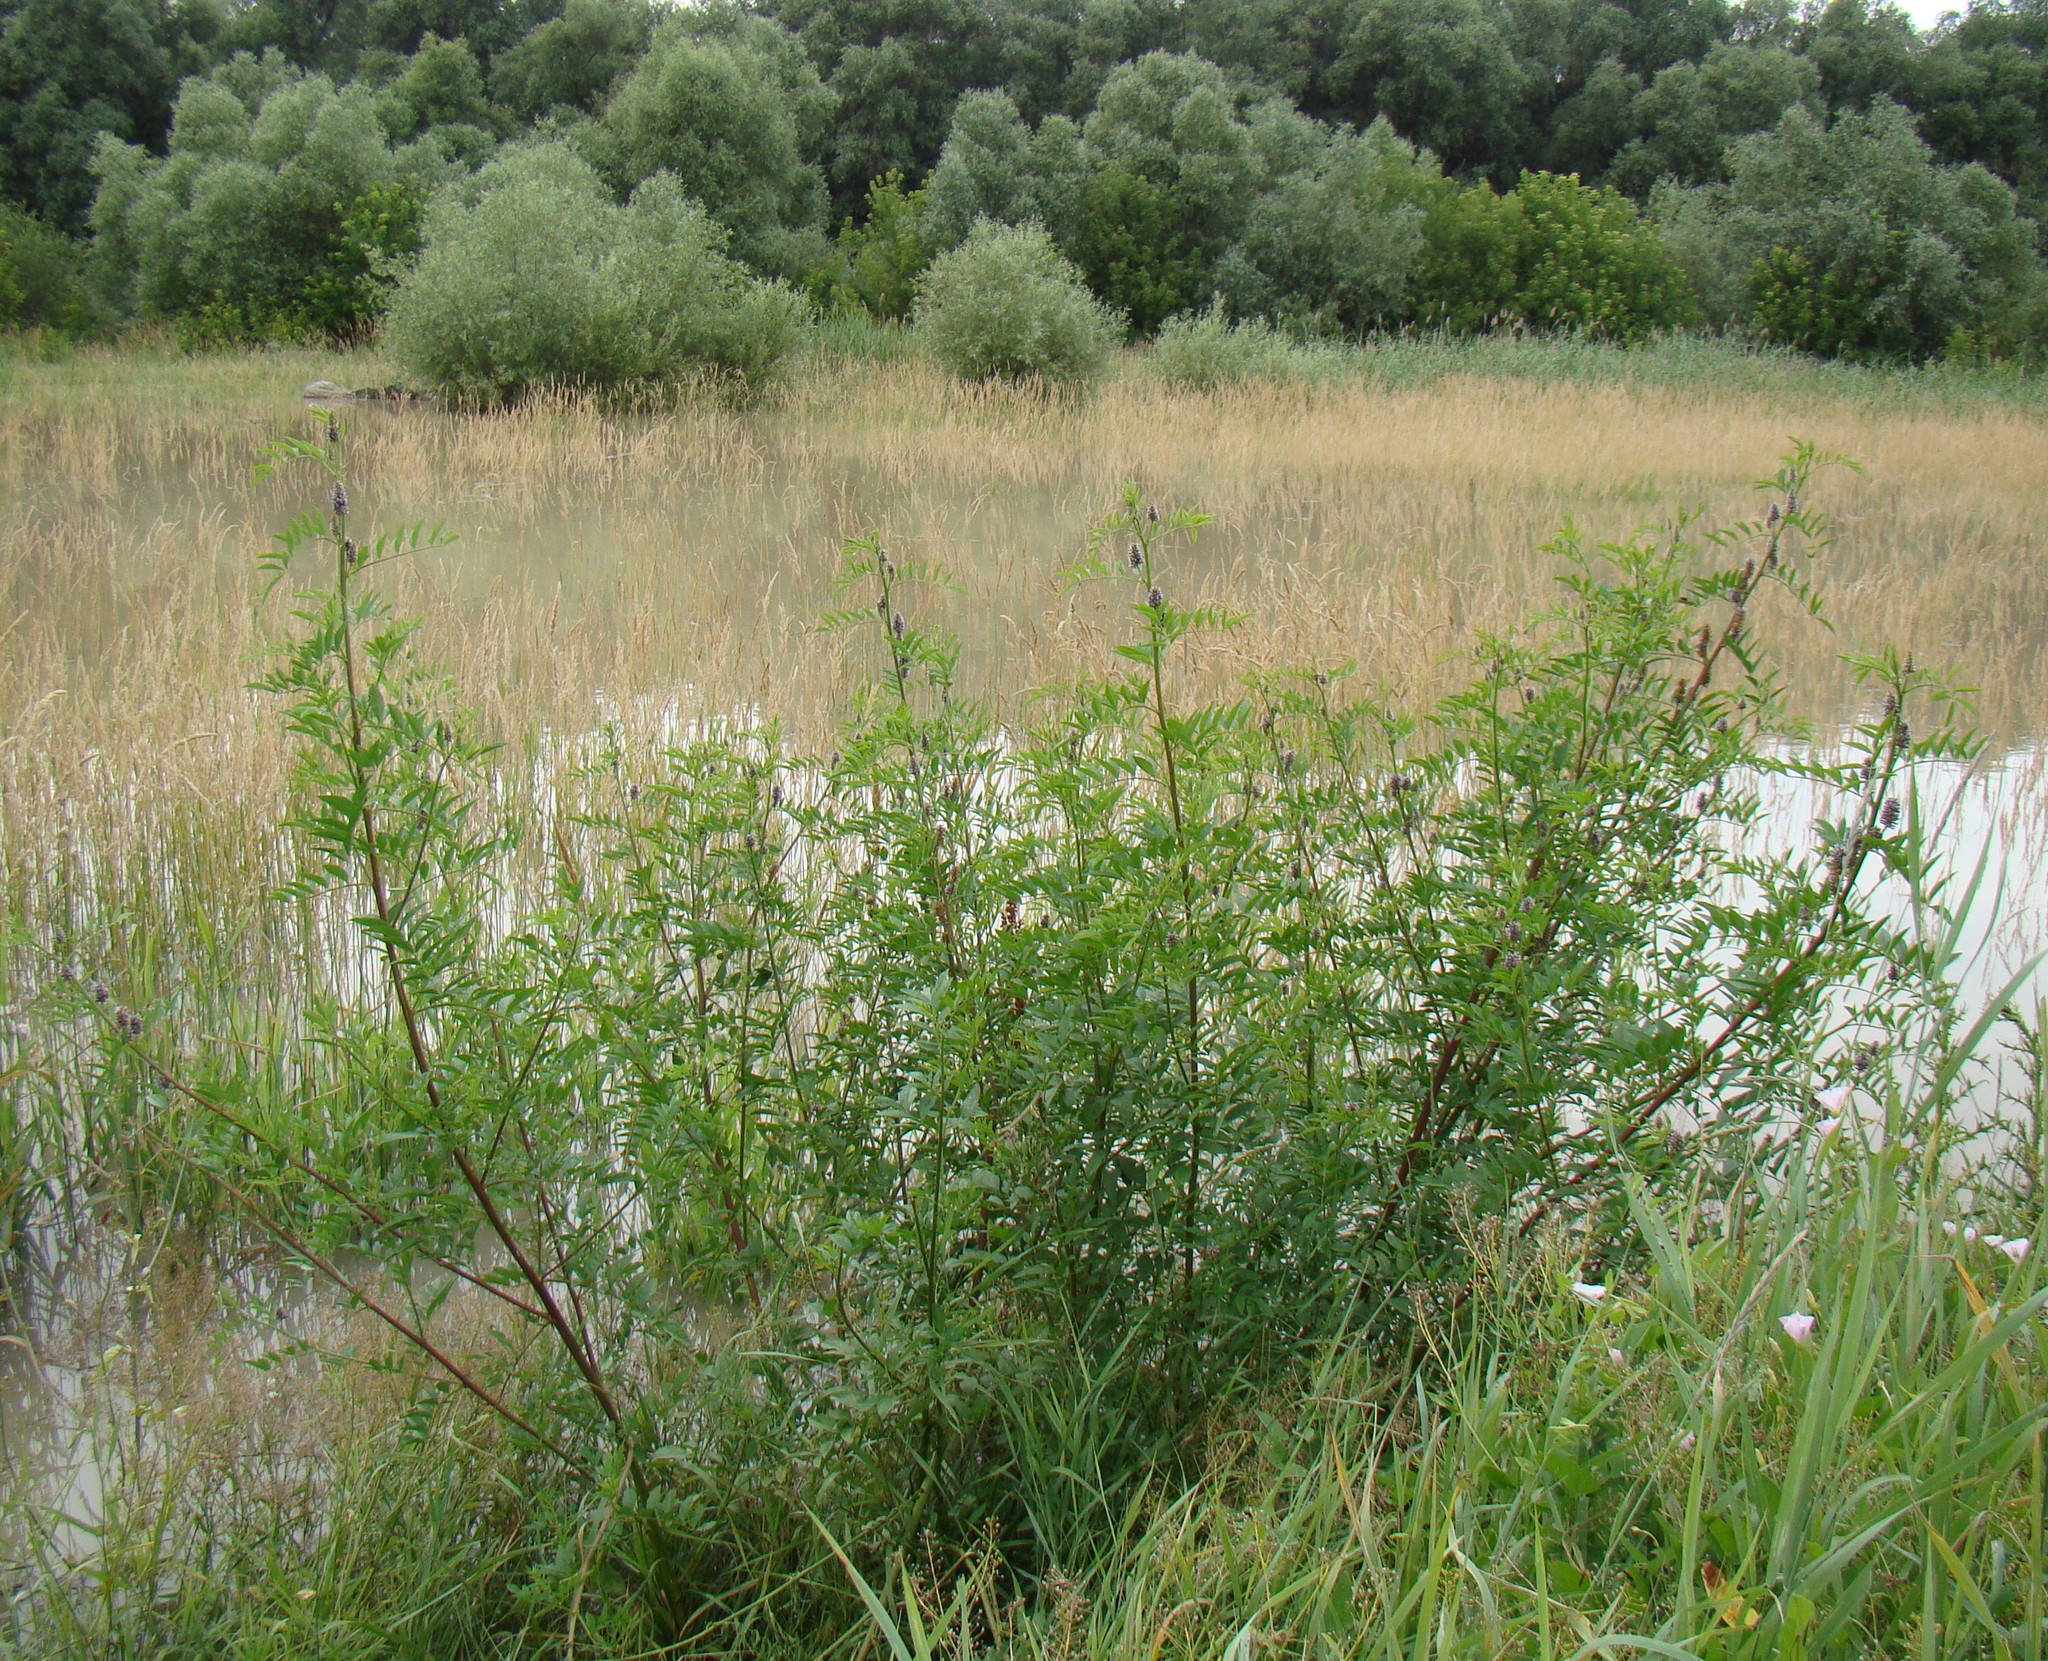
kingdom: Plantae
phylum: Tracheophyta
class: Magnoliopsida
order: Fabales
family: Fabaceae
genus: Glycyrrhiza
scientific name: Glycyrrhiza echinata
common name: German liquorice
